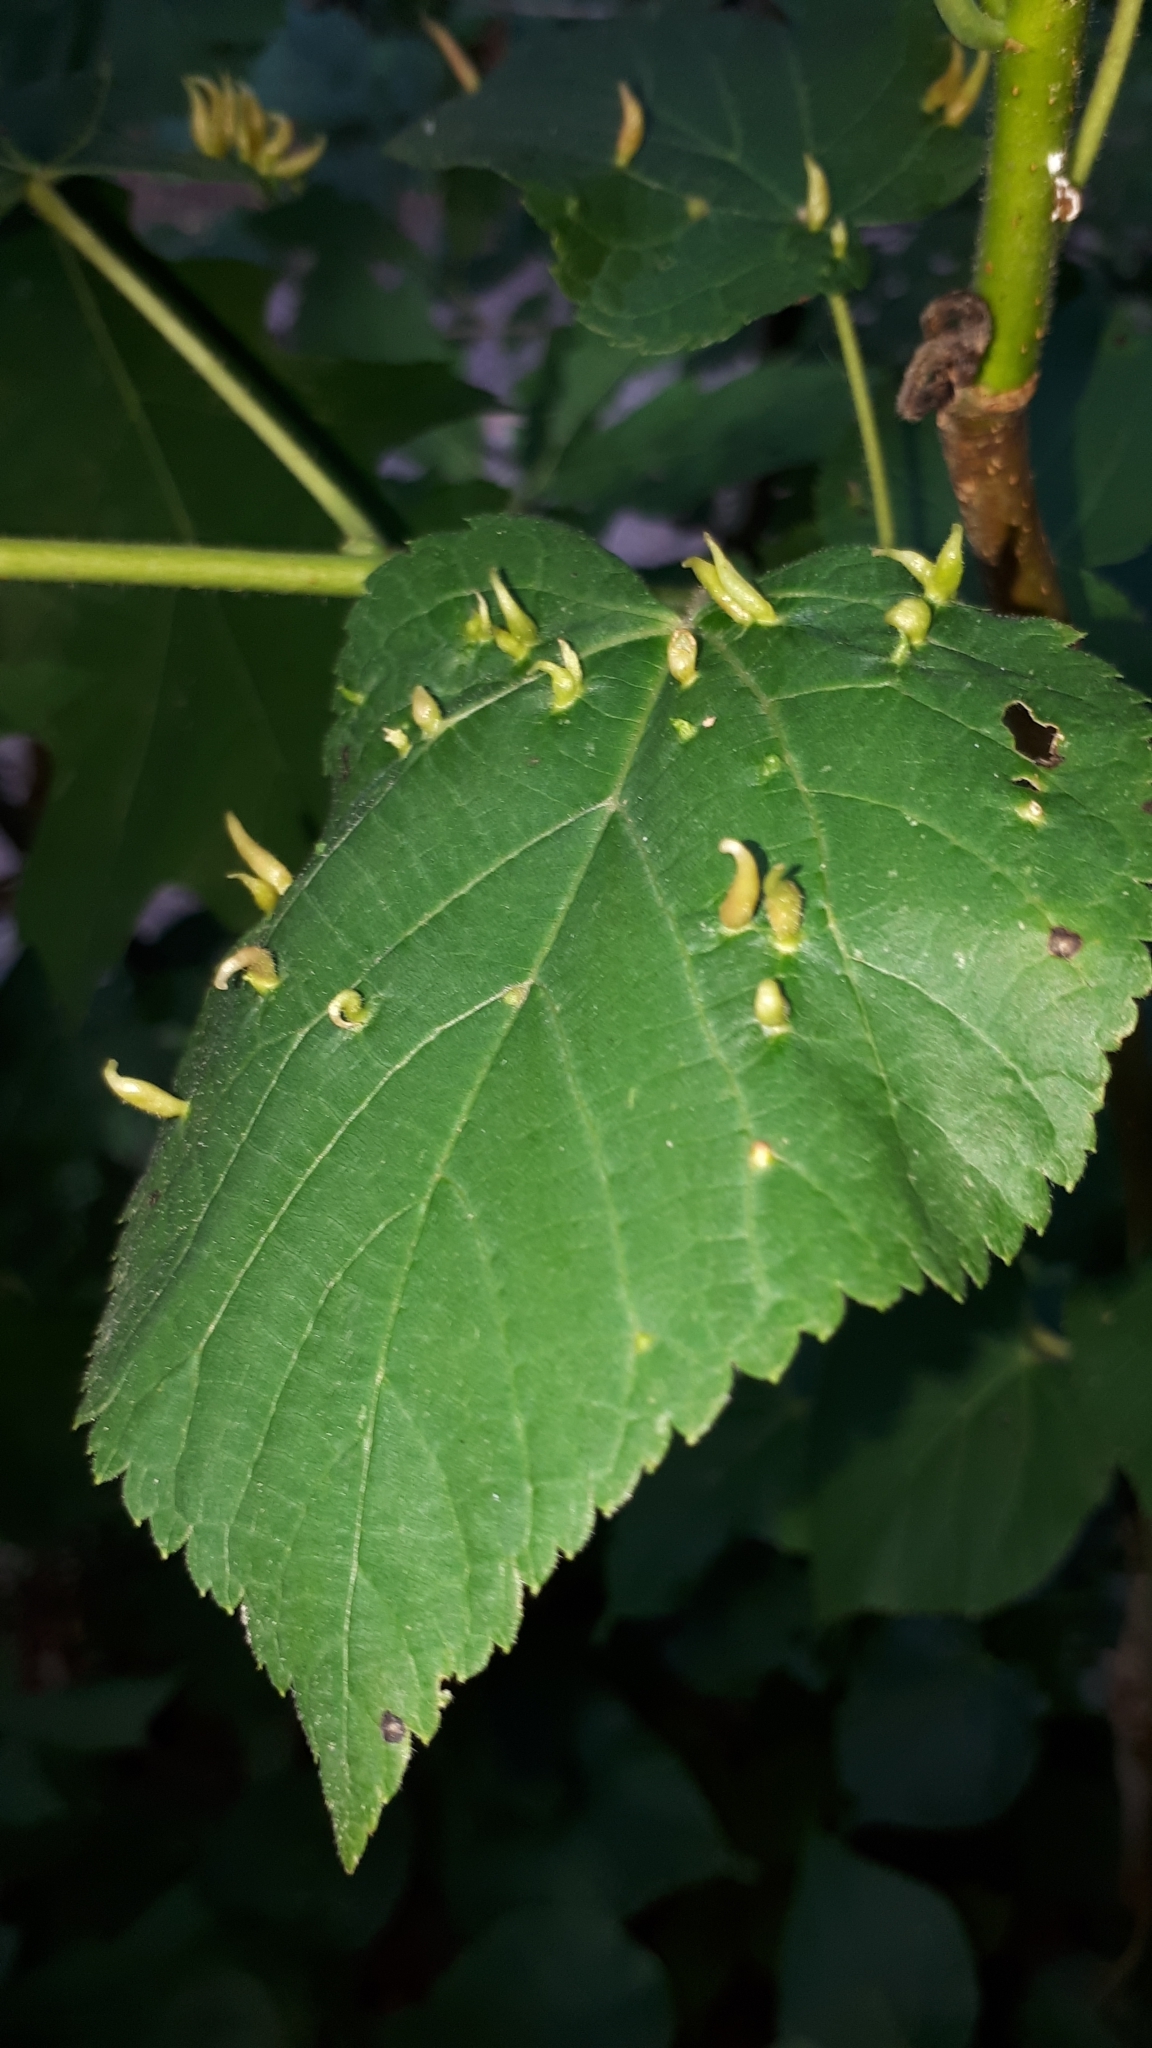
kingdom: Animalia
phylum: Arthropoda
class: Arachnida
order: Trombidiformes
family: Eriophyidae
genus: Eriophyes
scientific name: Eriophyes tiliae
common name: Red nail gall mite
